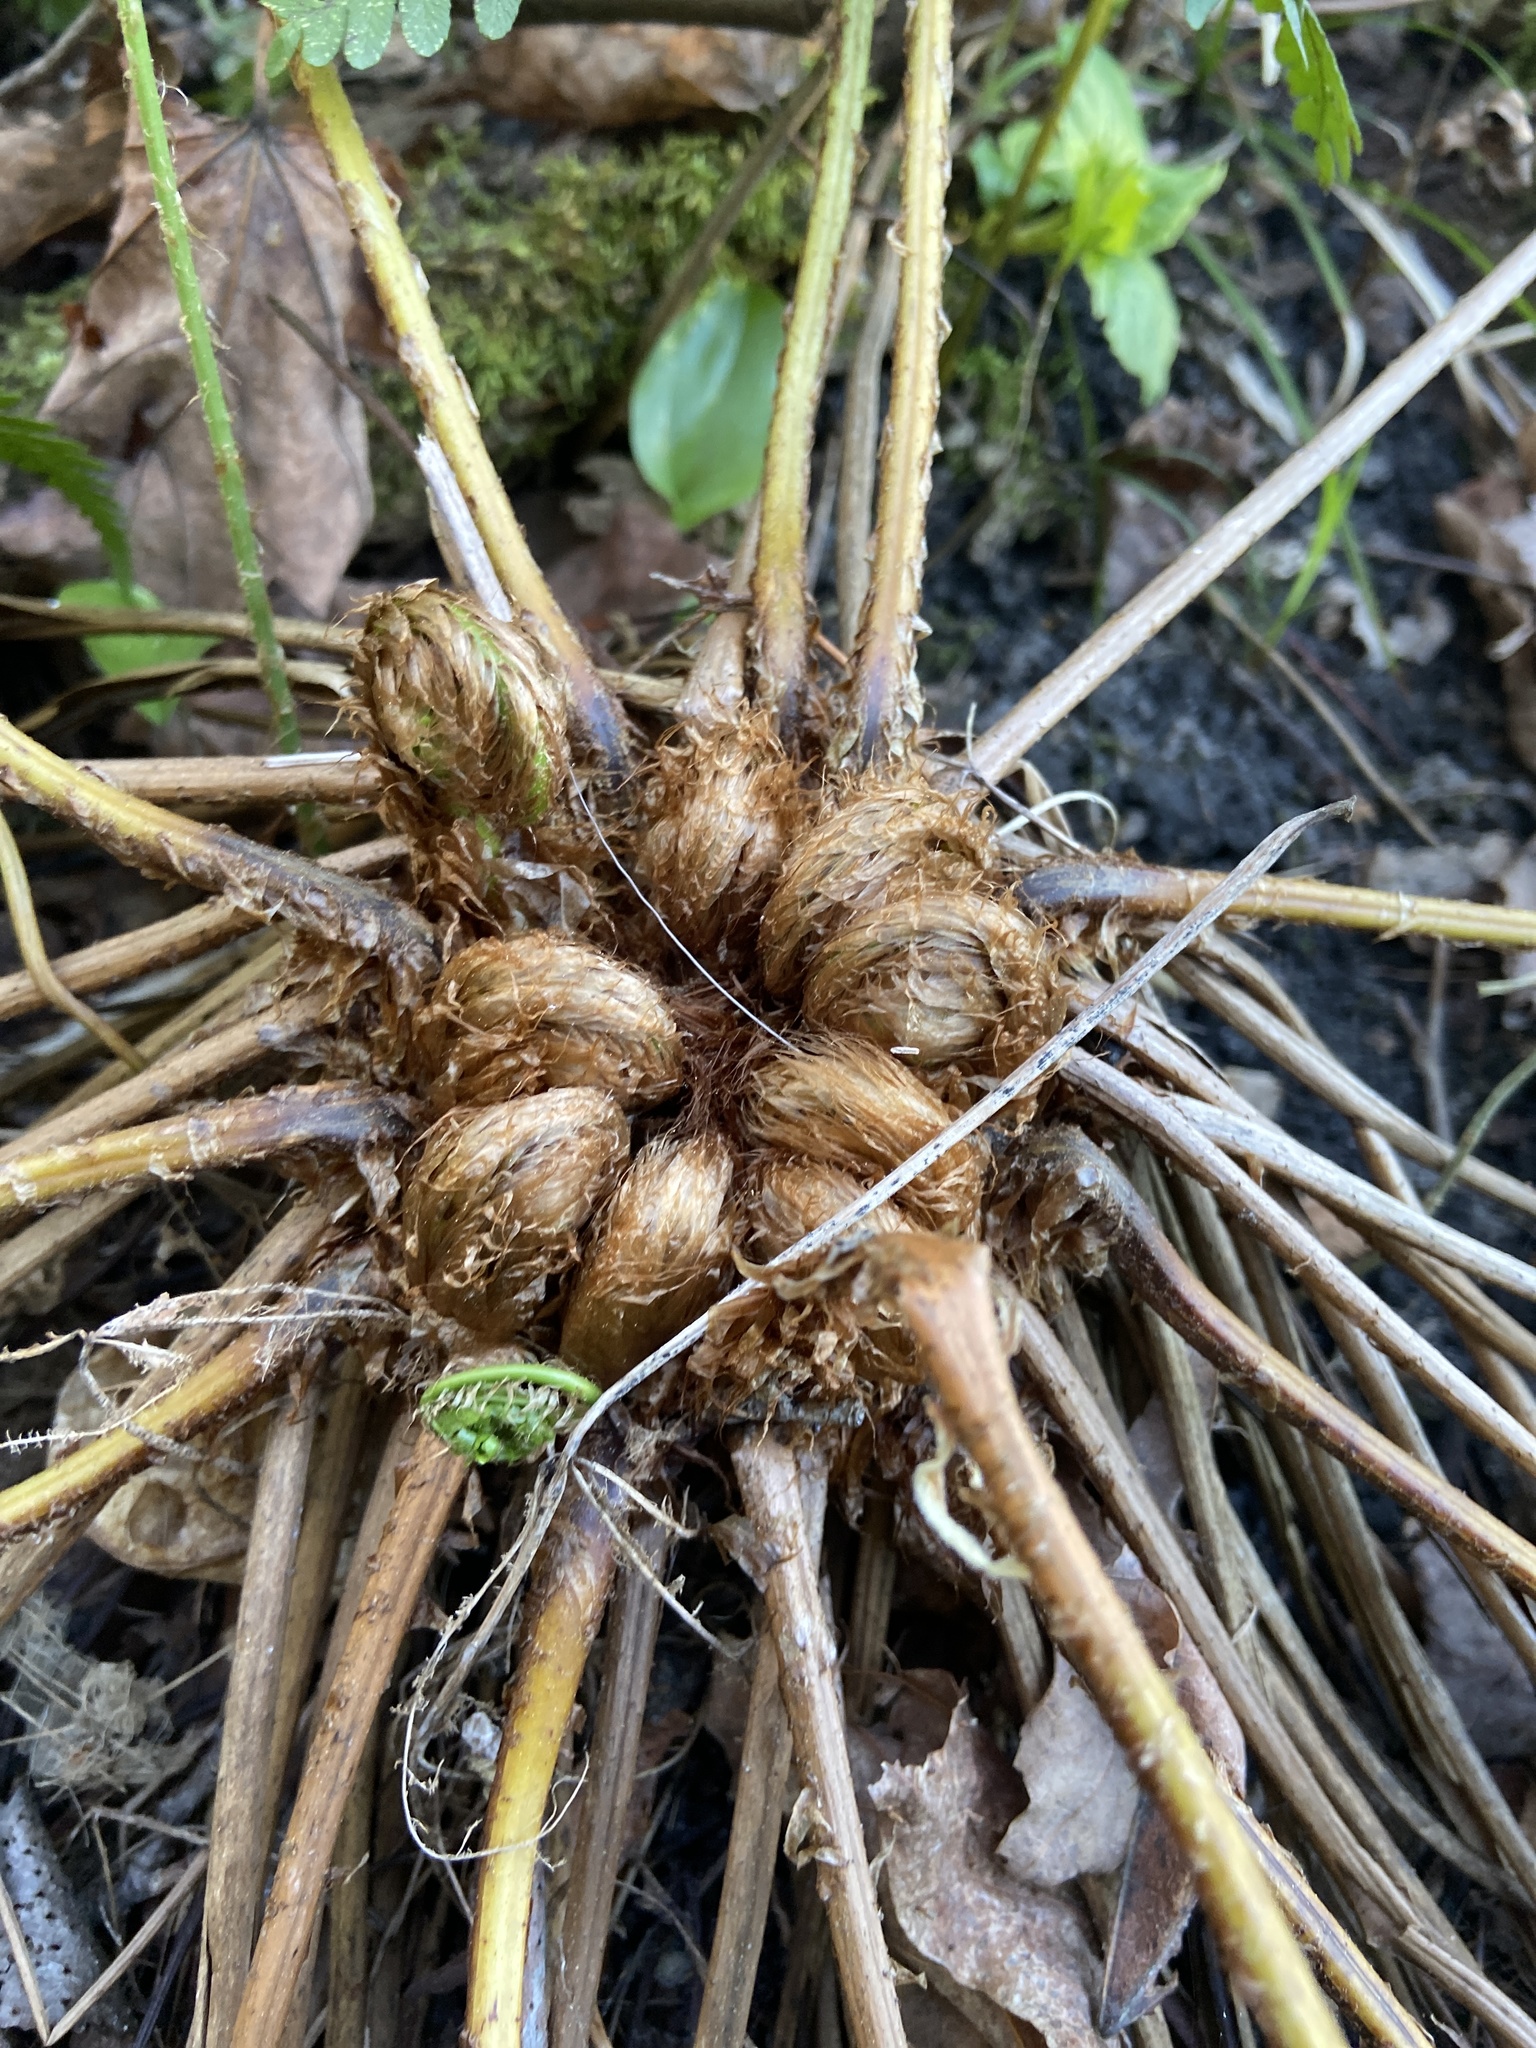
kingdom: Plantae
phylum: Tracheophyta
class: Polypodiopsida
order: Polypodiales
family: Dryopteridaceae
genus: Dryopteris
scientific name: Dryopteris marginalis
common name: Marginal wood fern
